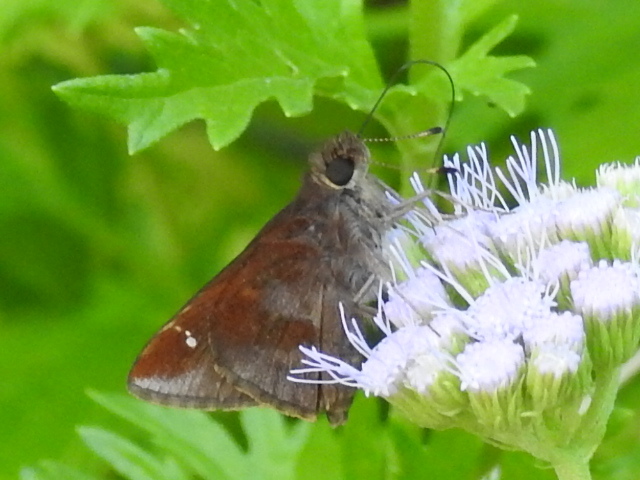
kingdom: Animalia
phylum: Arthropoda
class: Insecta
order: Lepidoptera
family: Hesperiidae
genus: Lerema
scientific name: Lerema accius
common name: Clouded skipper
